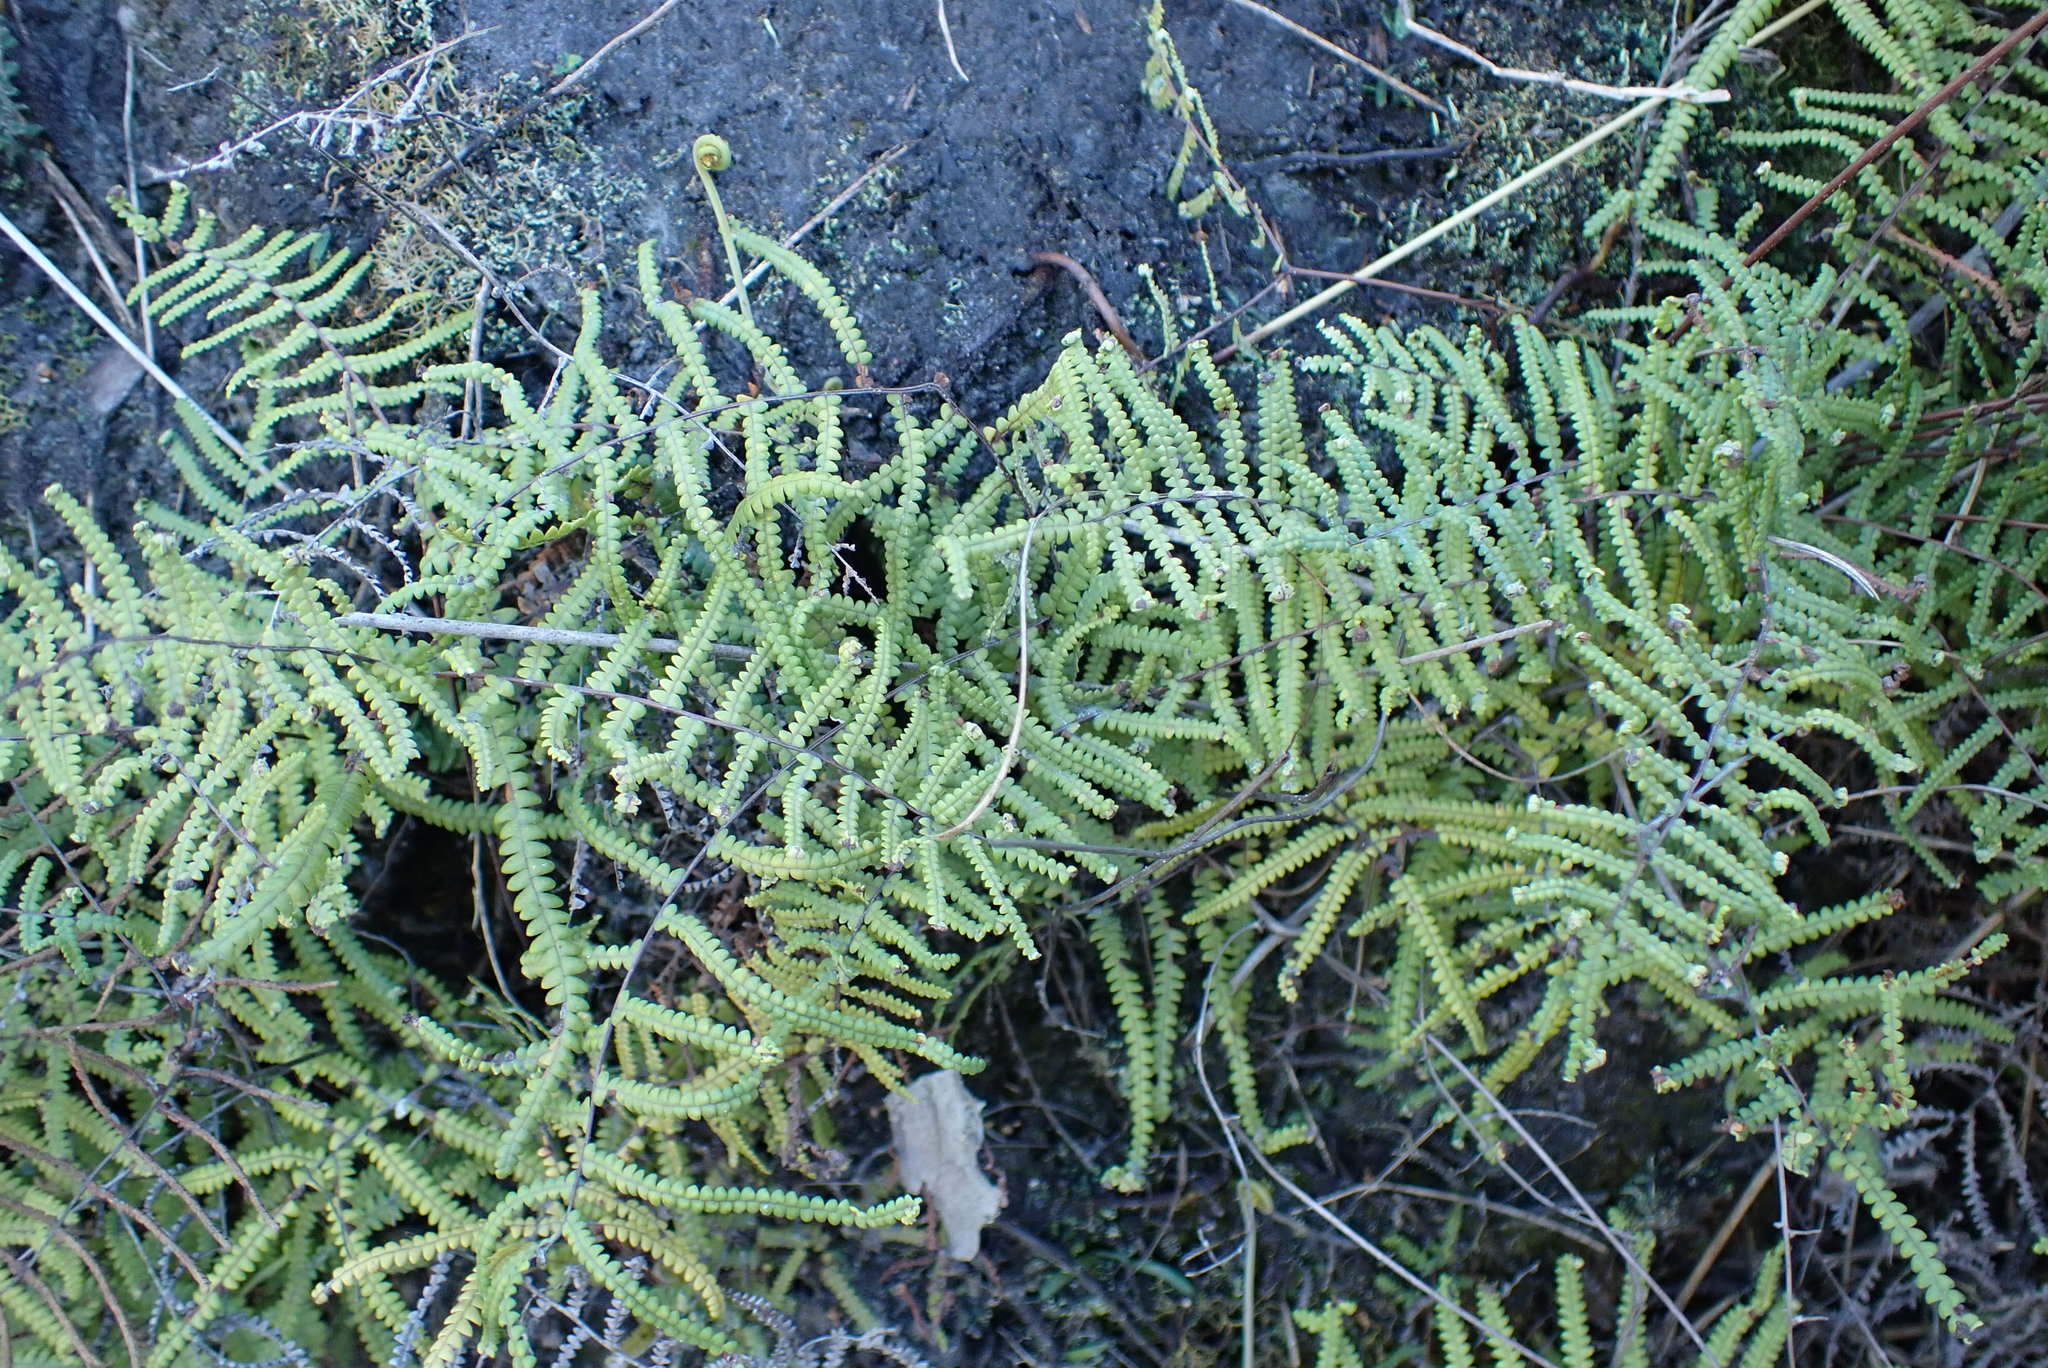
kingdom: Plantae
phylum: Tracheophyta
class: Polypodiopsida
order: Gleicheniales
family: Gleicheniaceae
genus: Gleichenia
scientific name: Gleichenia polypodioides
